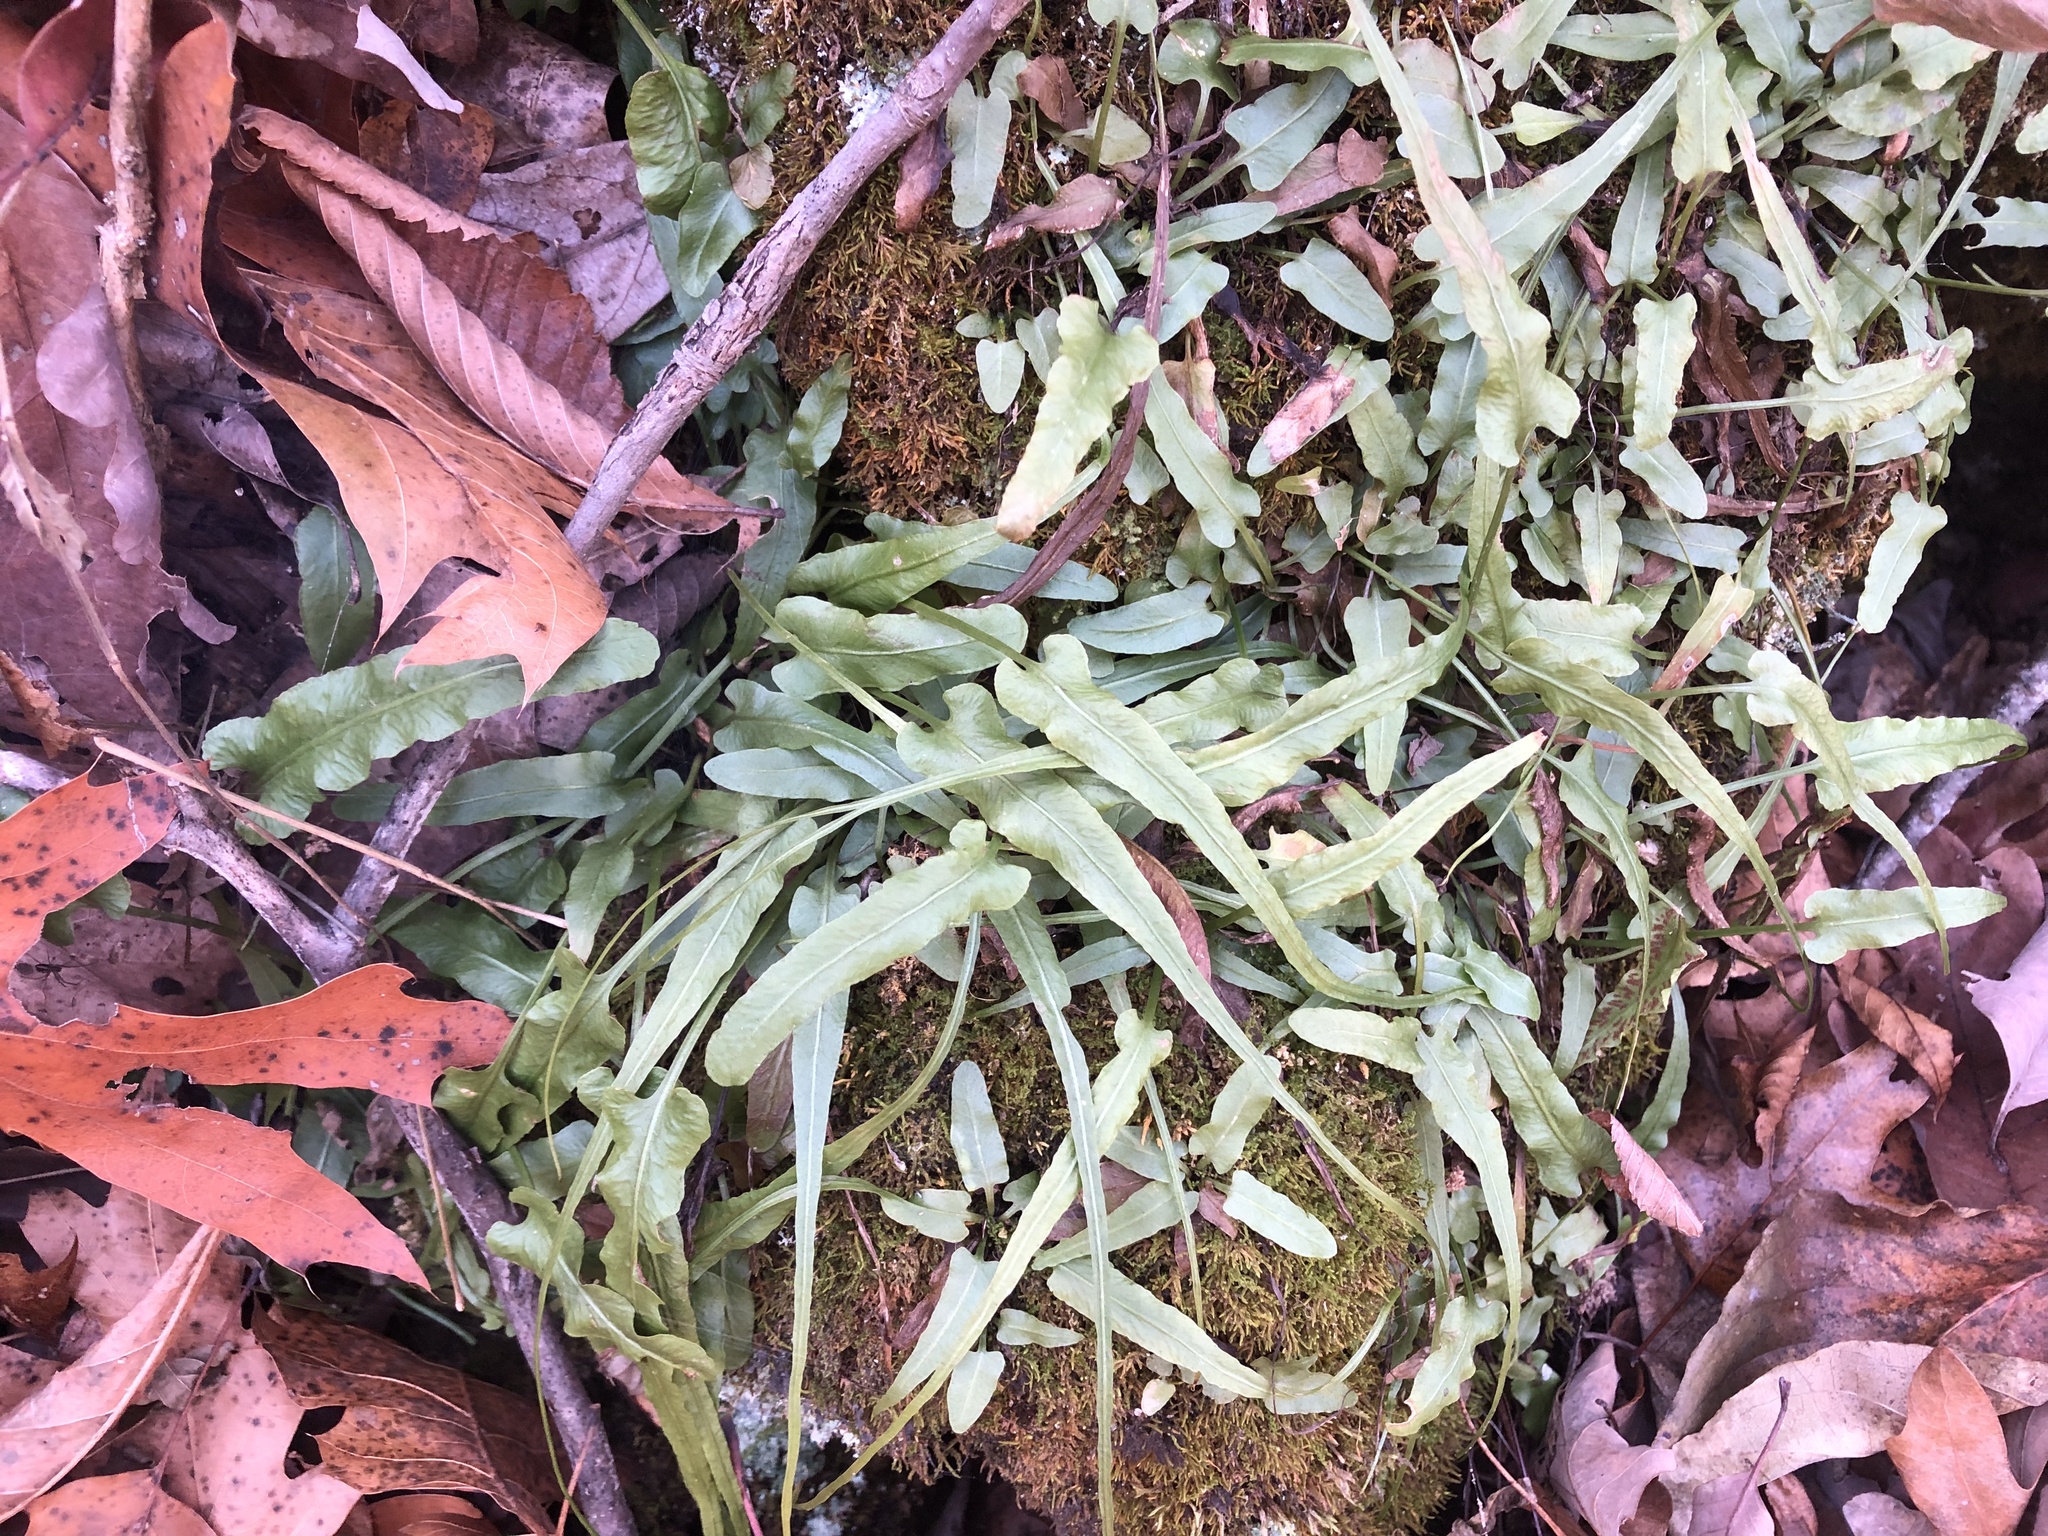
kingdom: Plantae
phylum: Tracheophyta
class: Polypodiopsida
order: Polypodiales
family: Aspleniaceae
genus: Asplenium
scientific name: Asplenium rhizophyllum
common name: Walking fern
